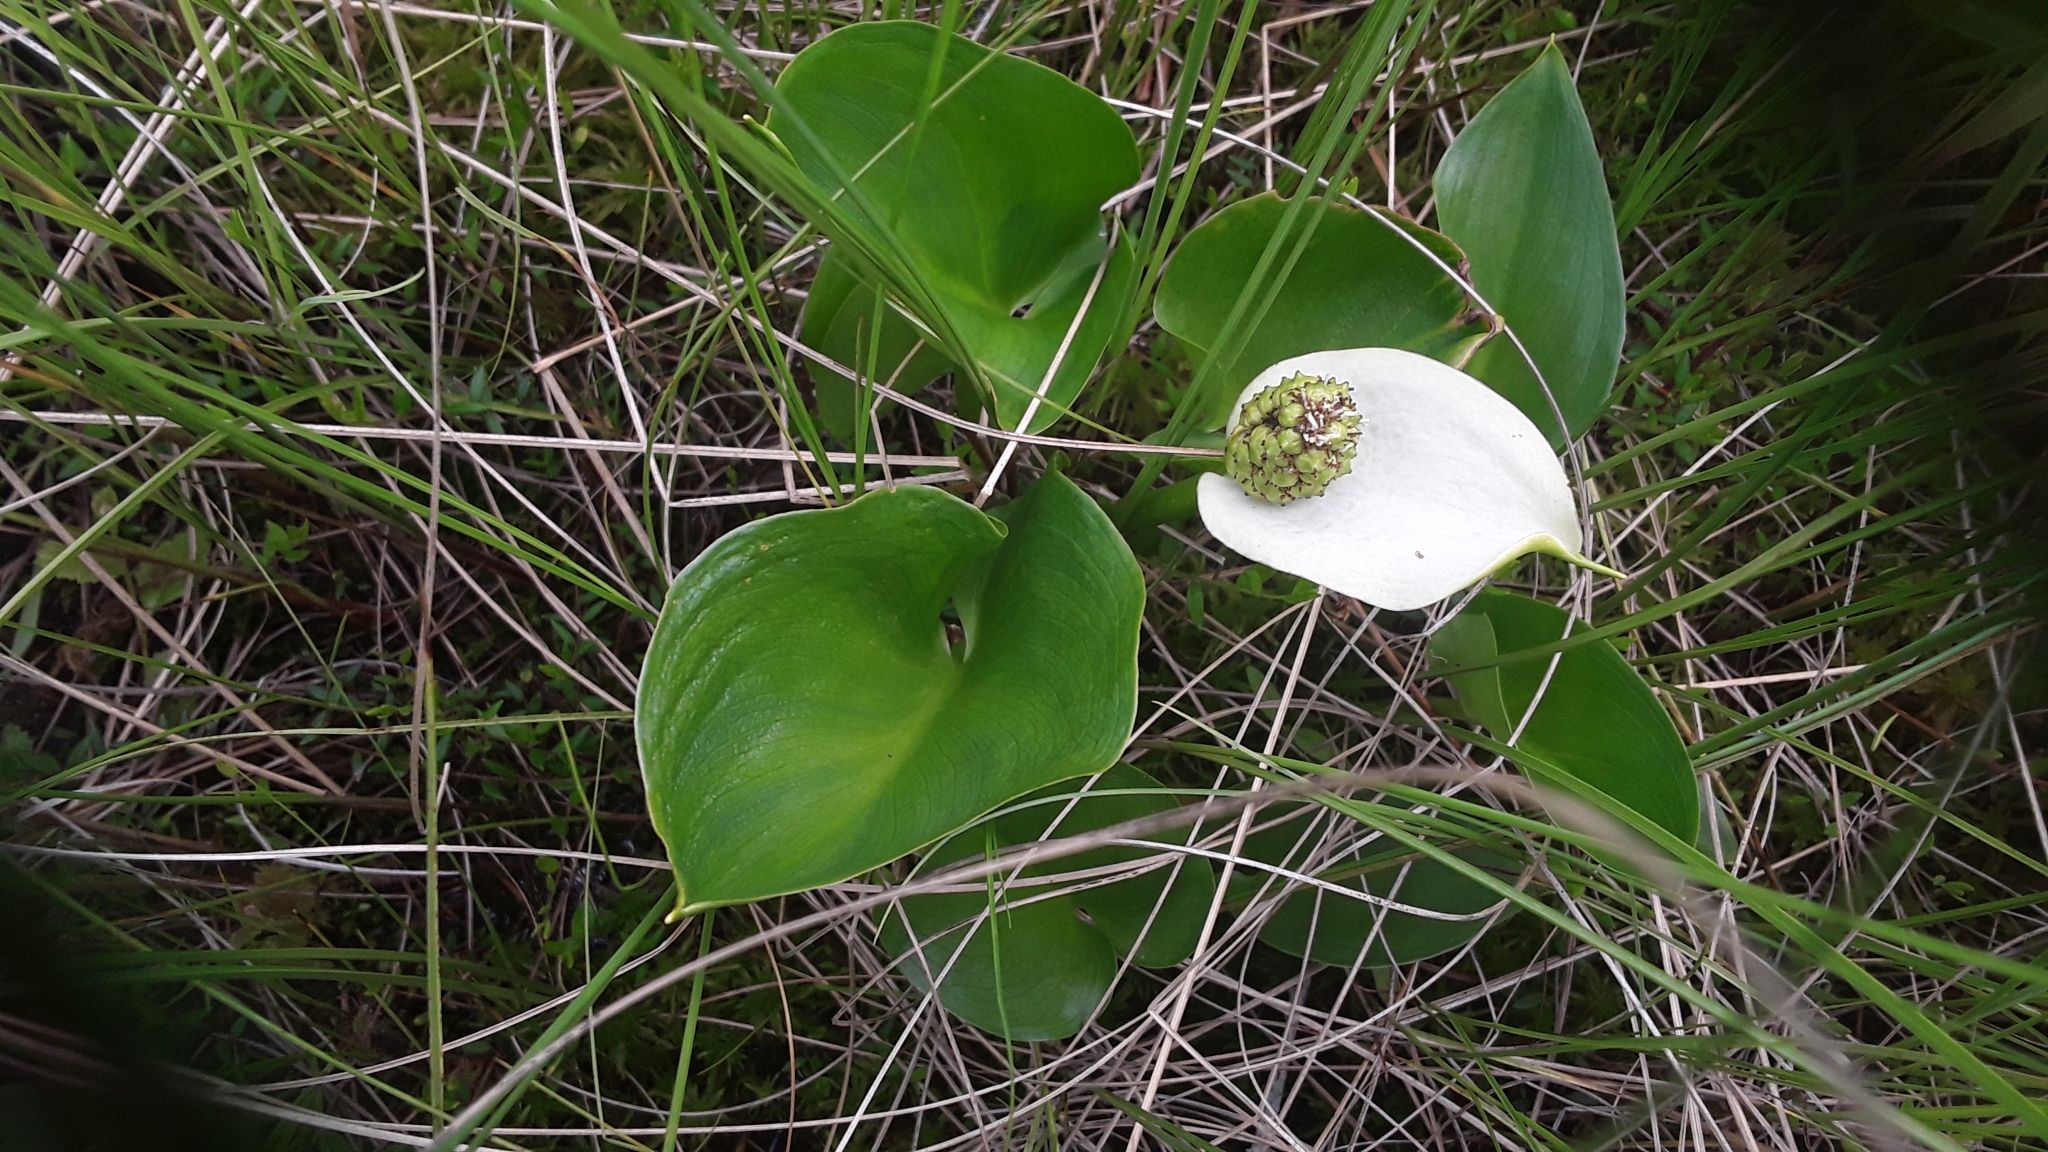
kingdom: Plantae
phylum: Tracheophyta
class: Liliopsida
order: Alismatales
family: Araceae
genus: Calla
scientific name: Calla palustris
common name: Bog arum
